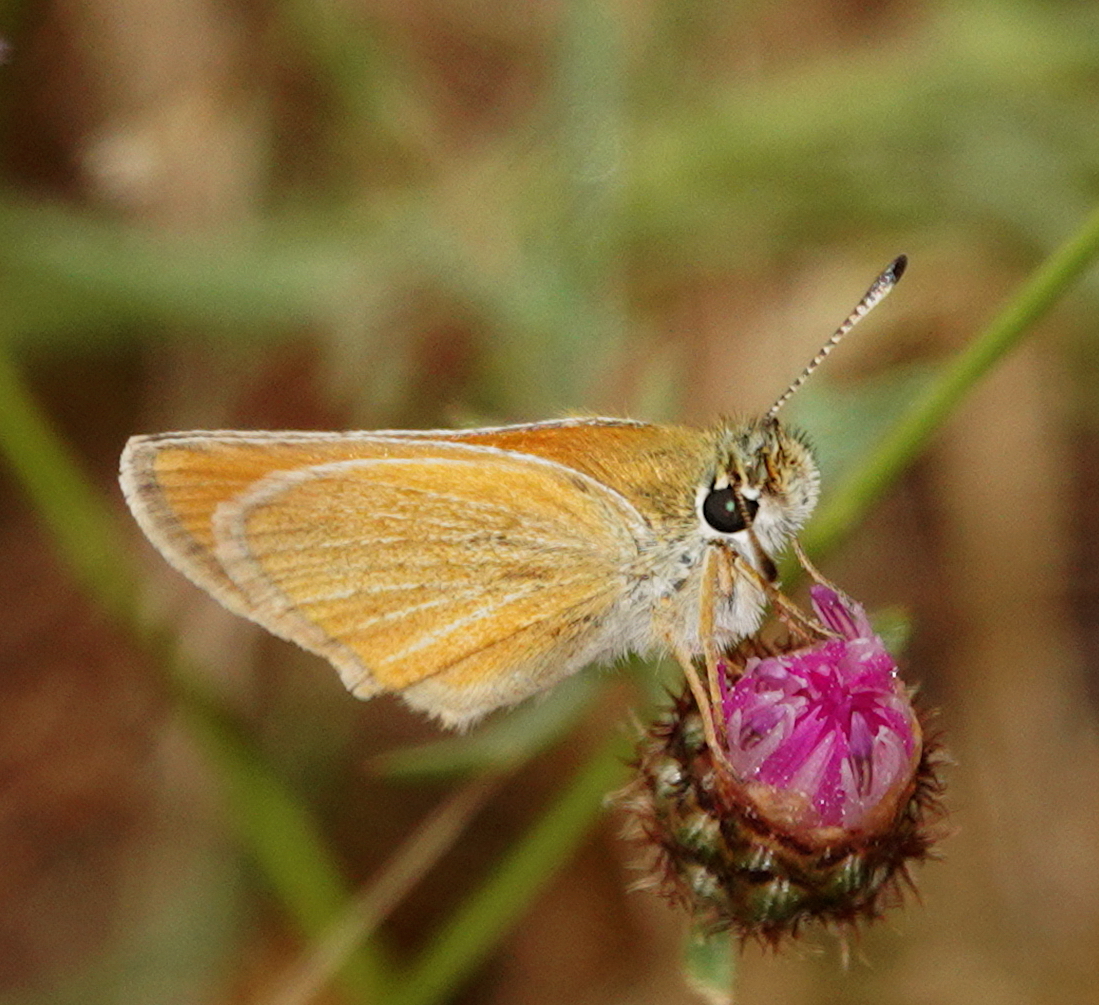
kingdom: Animalia
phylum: Arthropoda
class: Insecta
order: Lepidoptera
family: Hesperiidae
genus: Thymelicus
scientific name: Thymelicus lineola
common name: Essex skipper
